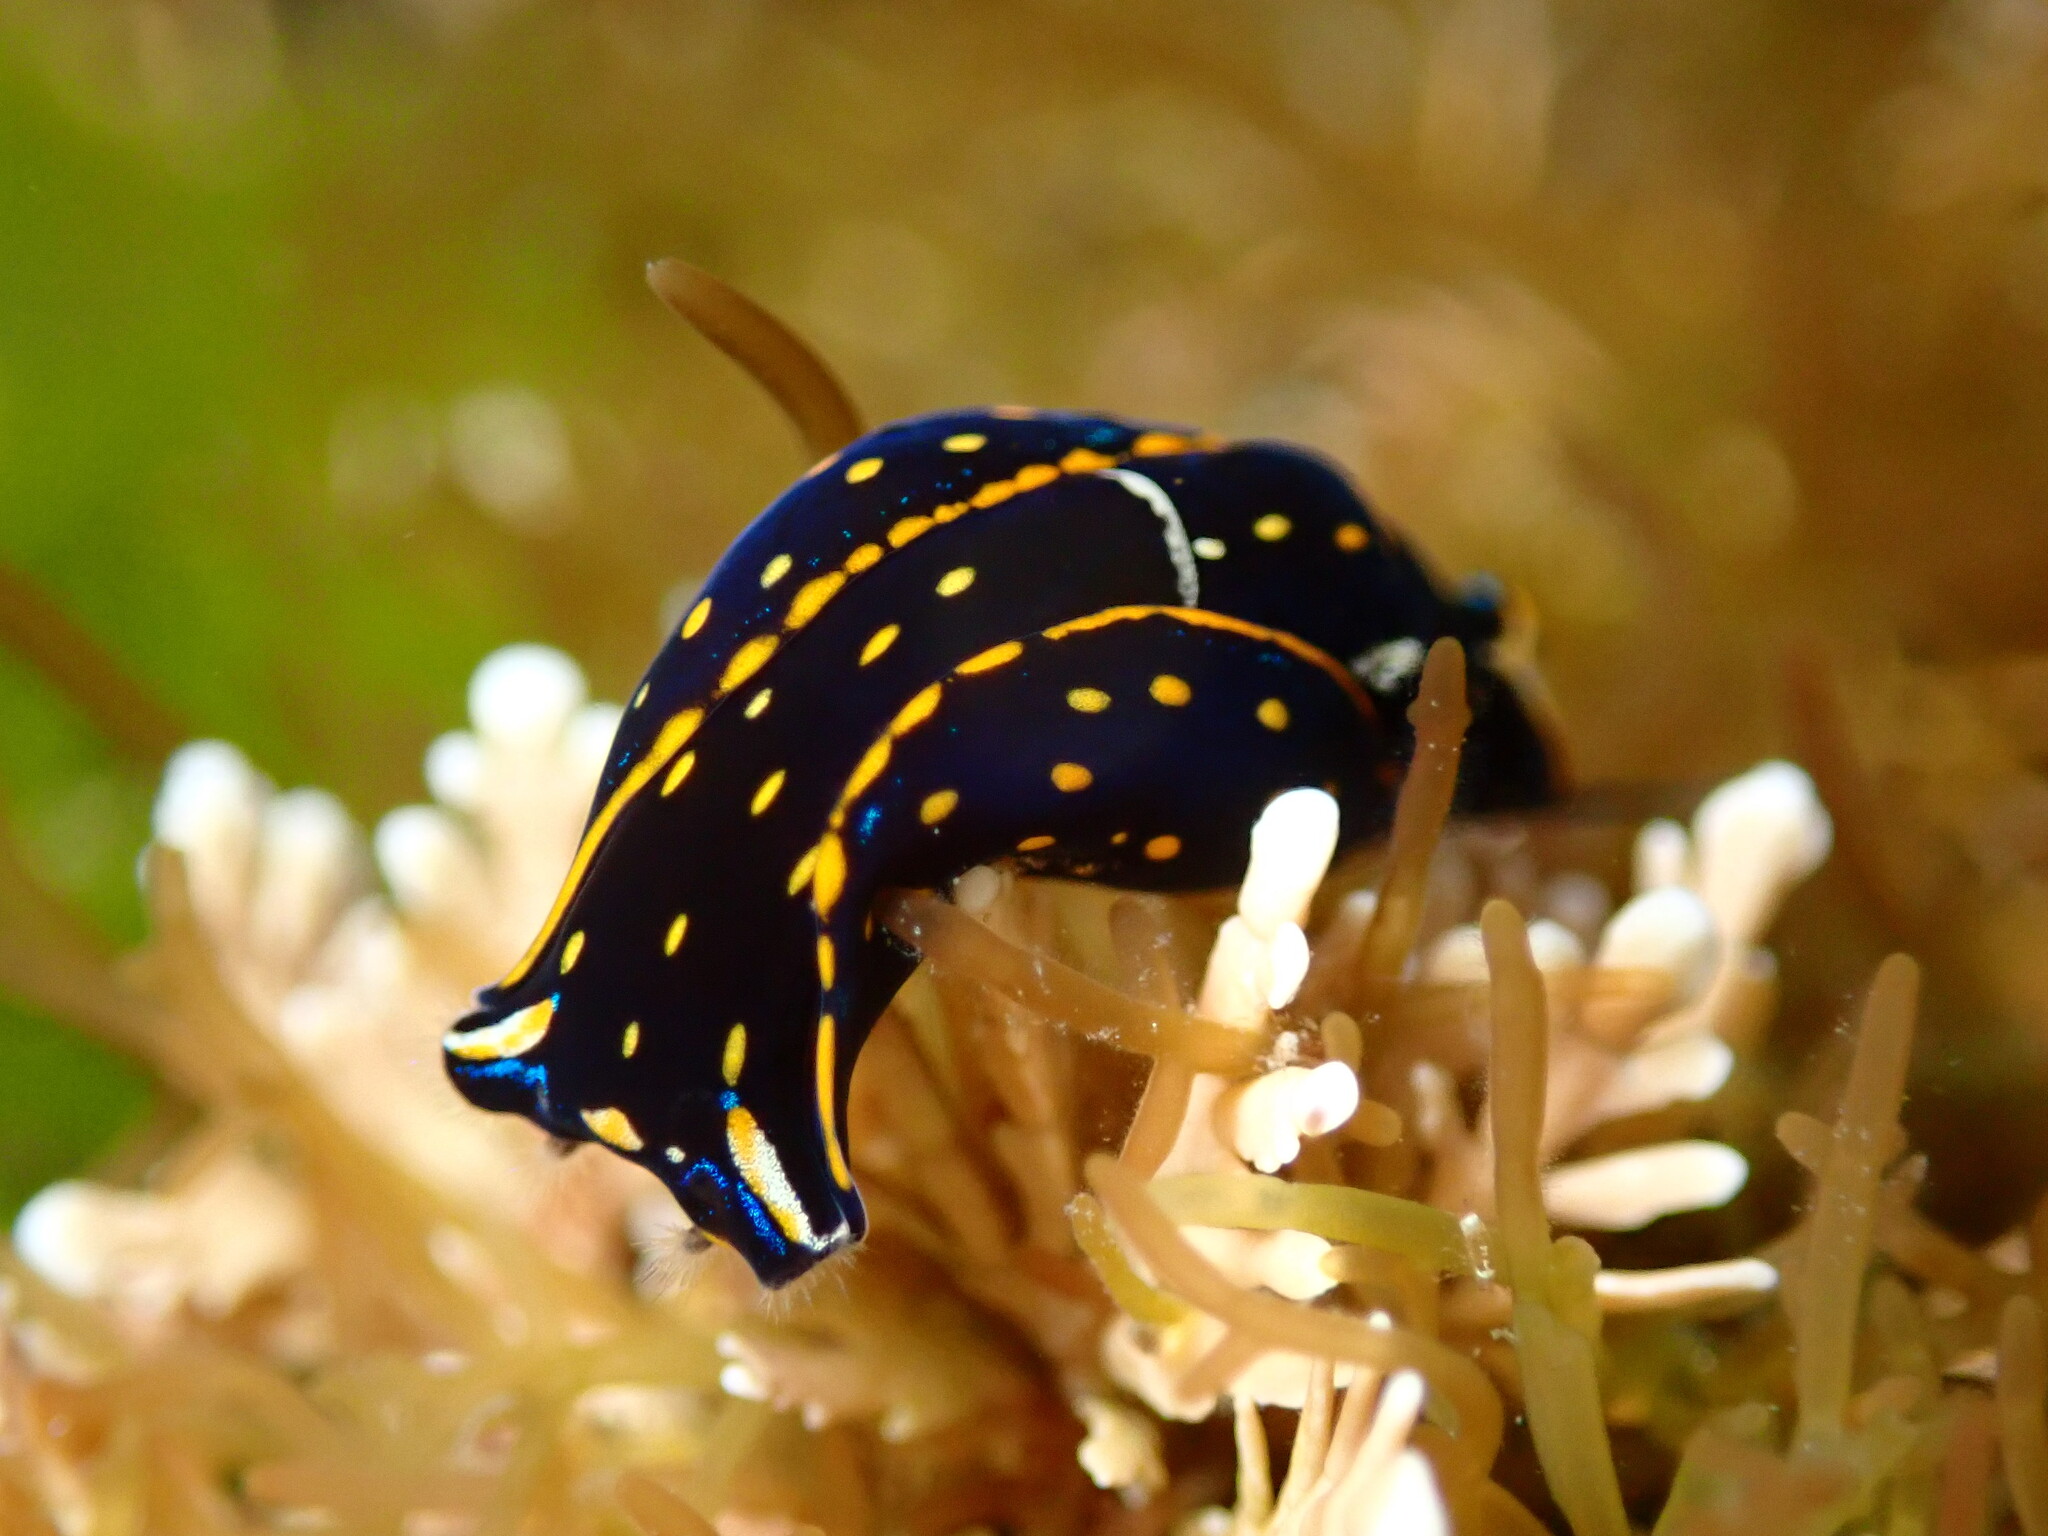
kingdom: Animalia
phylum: Mollusca
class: Gastropoda
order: Cephalaspidea
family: Aglajidae
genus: Navanax
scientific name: Navanax inermis
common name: California aglaja
